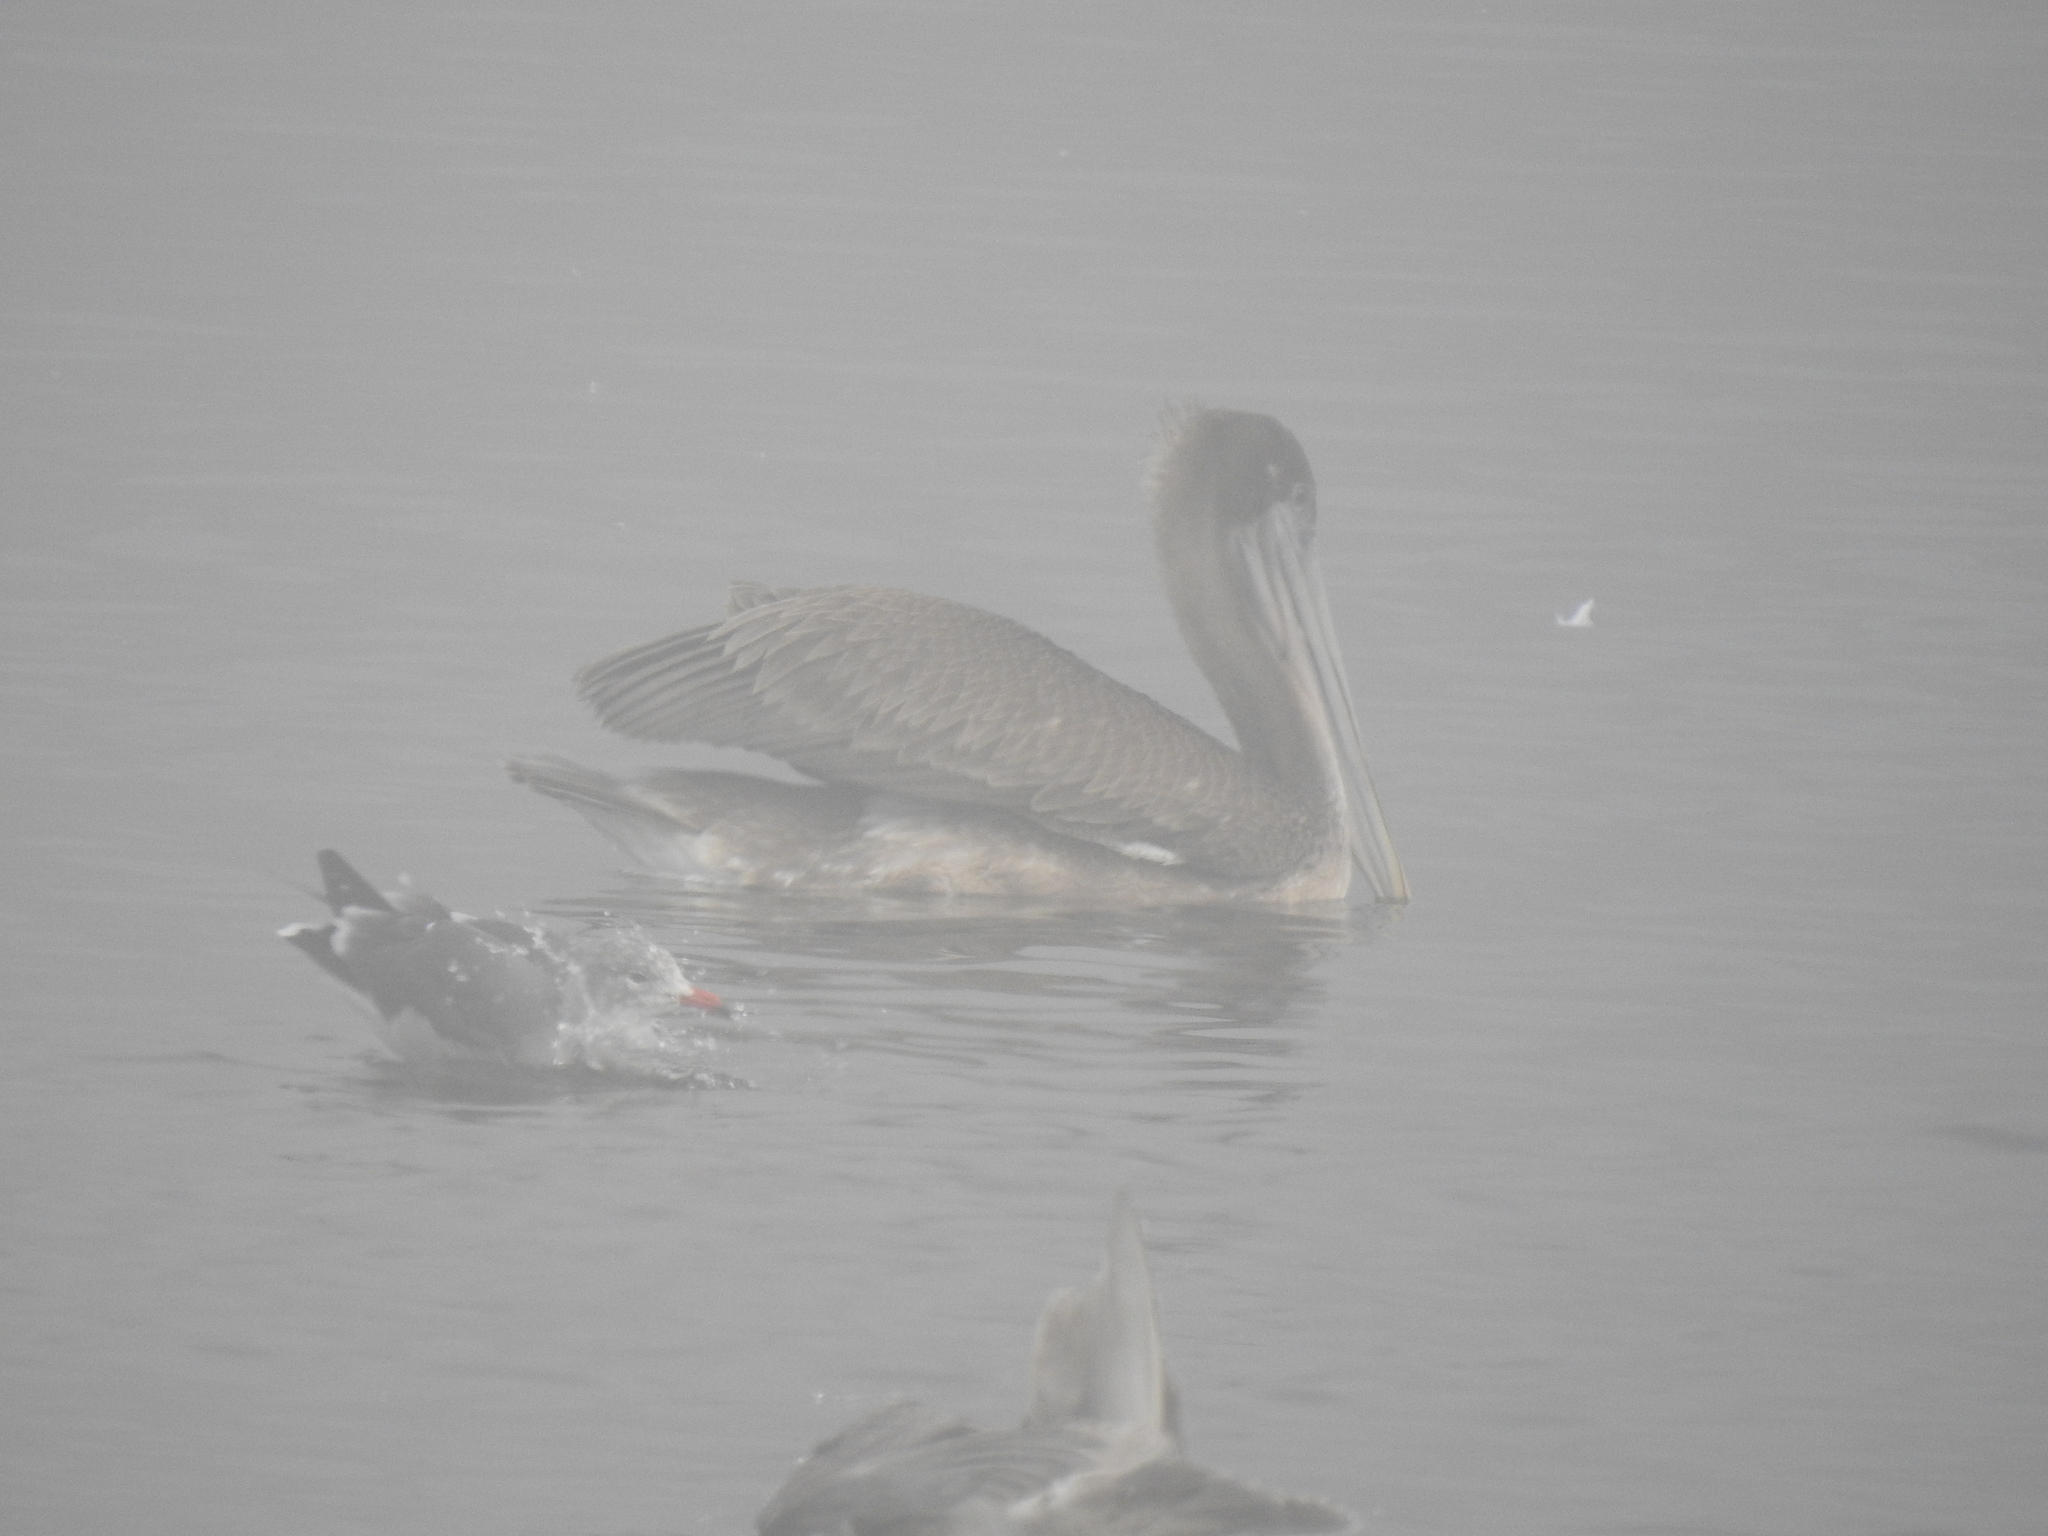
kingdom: Animalia
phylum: Chordata
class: Aves
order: Pelecaniformes
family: Pelecanidae
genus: Pelecanus
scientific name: Pelecanus occidentalis
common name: Brown pelican
